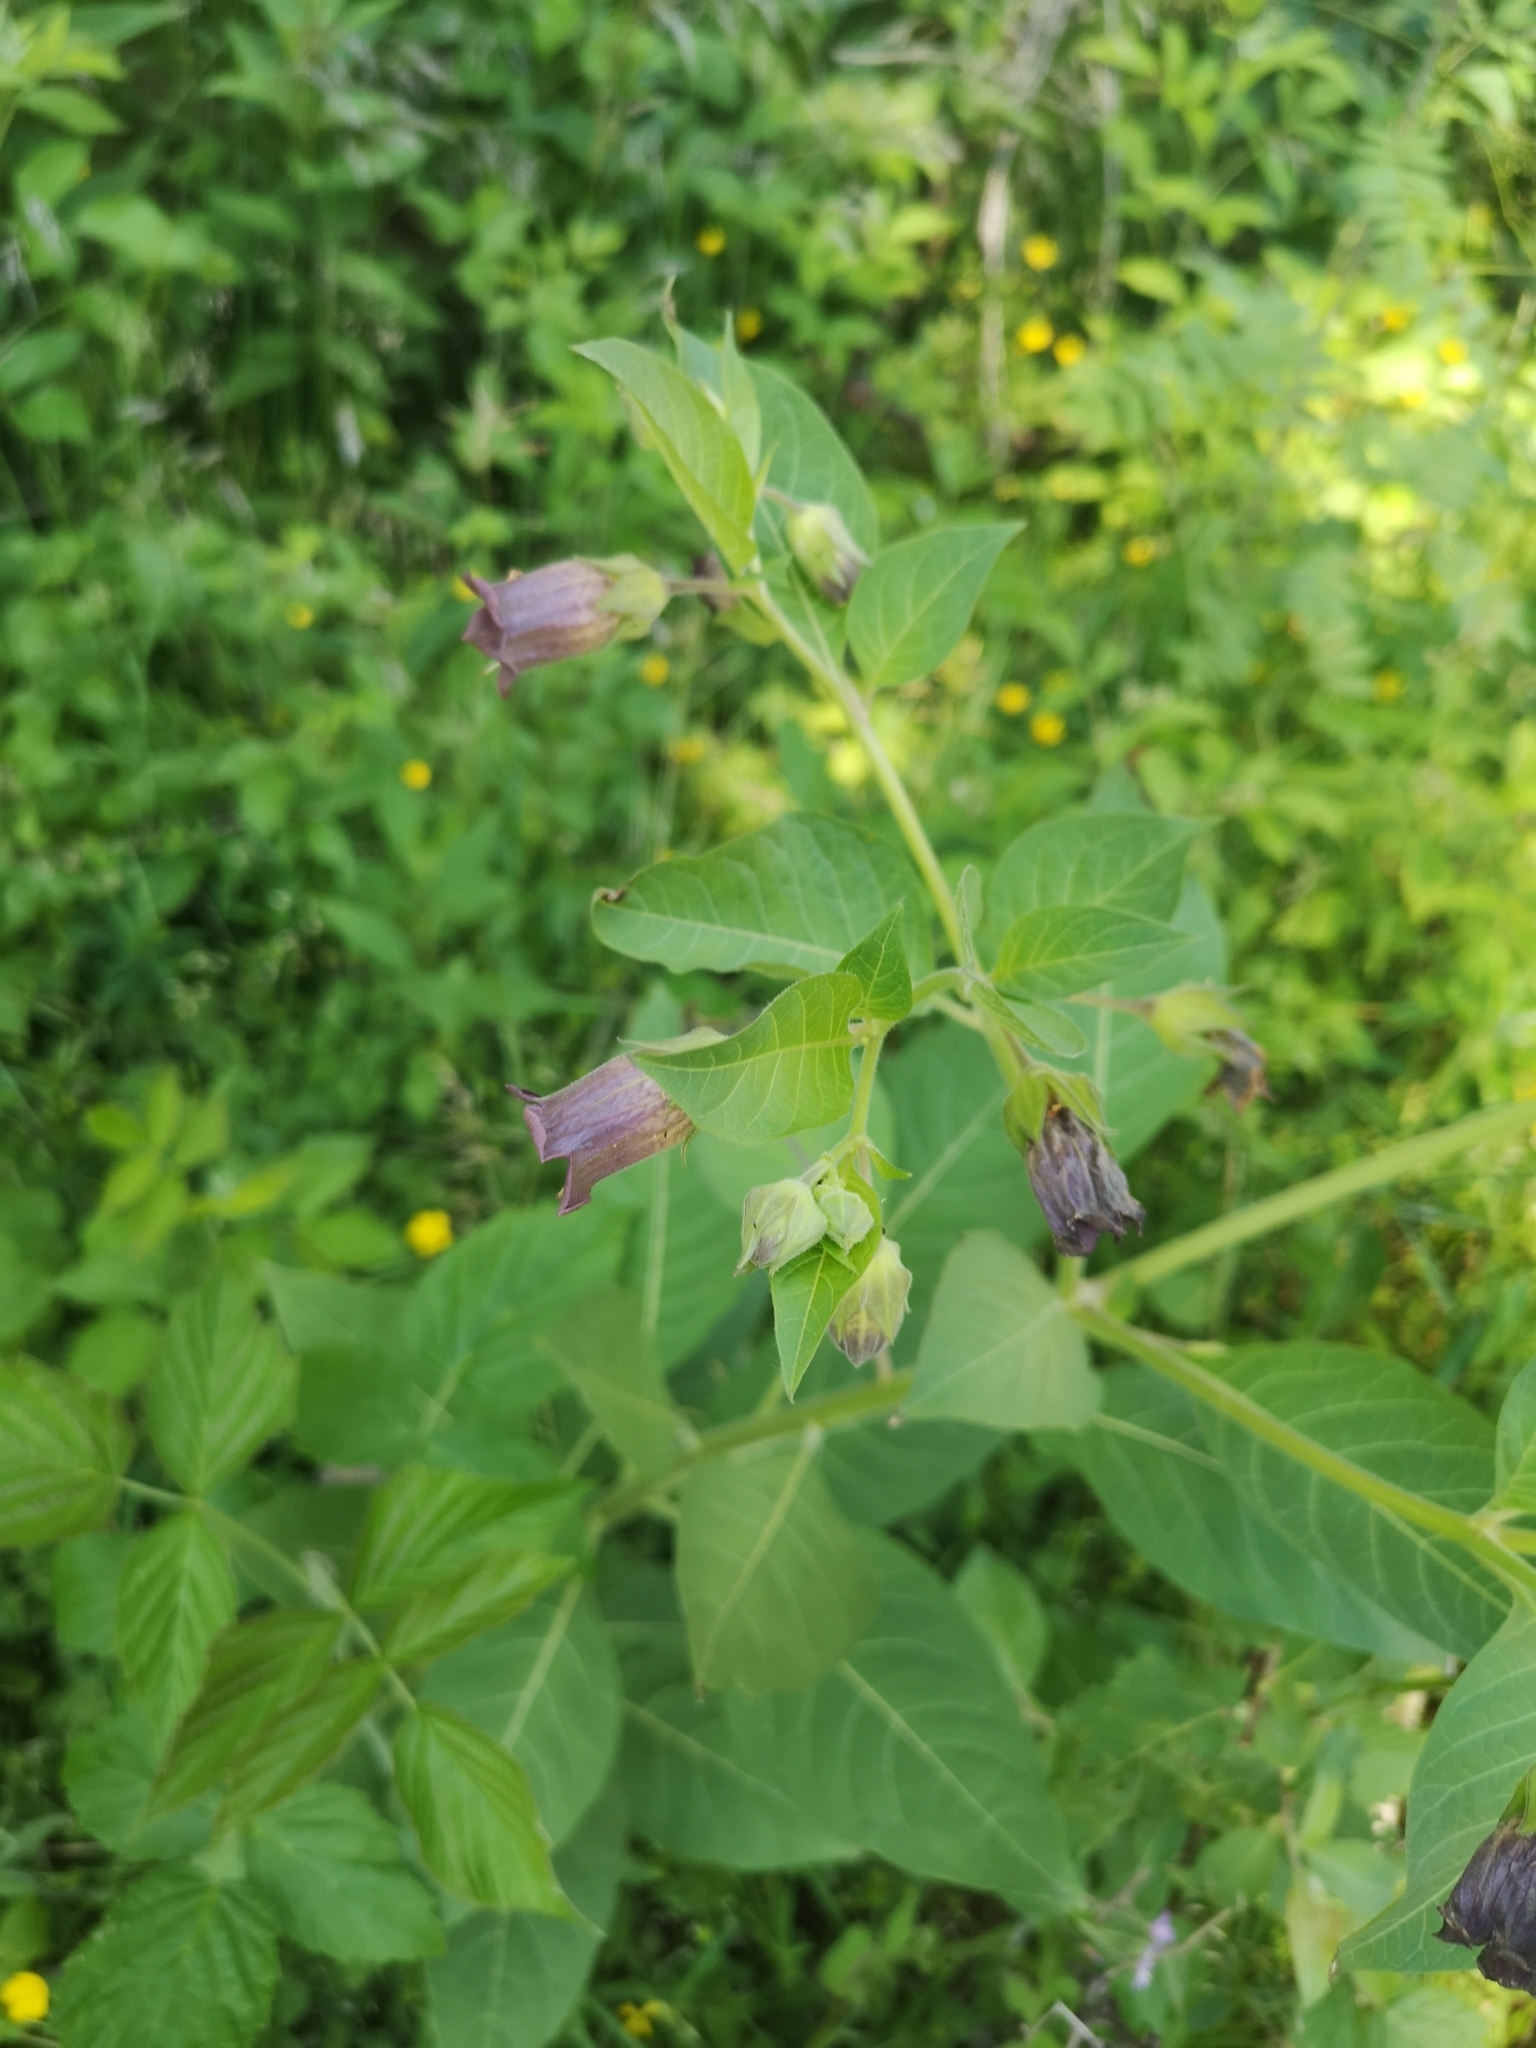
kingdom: Plantae
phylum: Tracheophyta
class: Magnoliopsida
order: Solanales
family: Solanaceae
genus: Atropa
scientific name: Atropa belladonna
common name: Deadly nightshade
